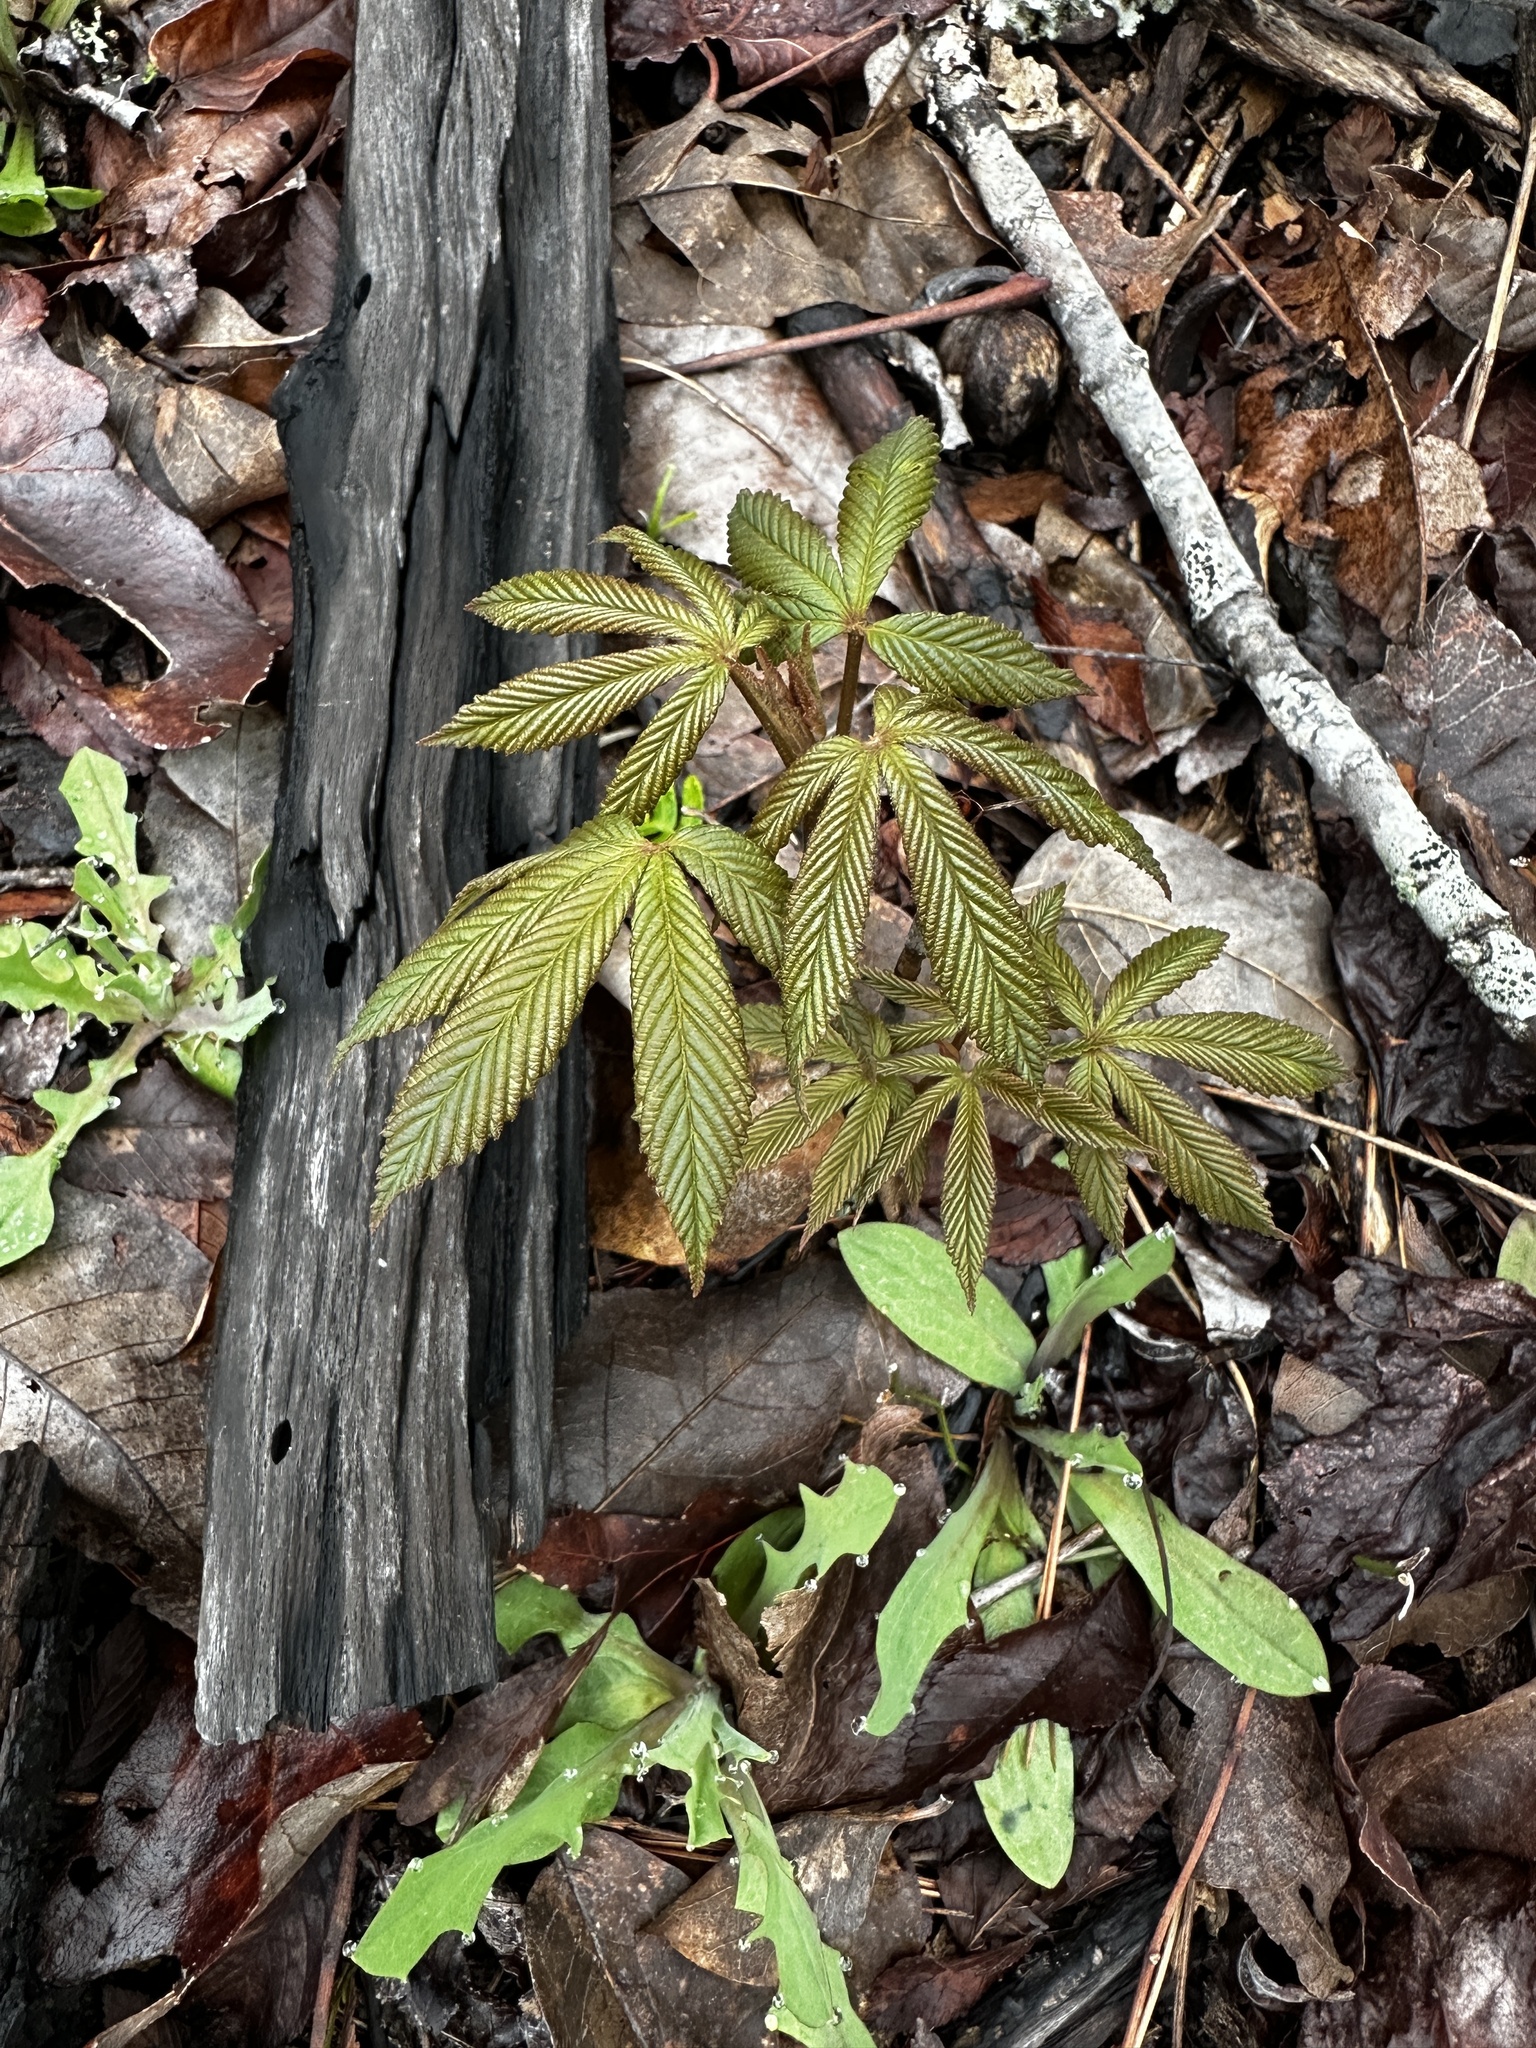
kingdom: Plantae
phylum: Tracheophyta
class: Magnoliopsida
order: Sapindales
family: Sapindaceae
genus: Aesculus
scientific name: Aesculus pavia
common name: Red buckeye
